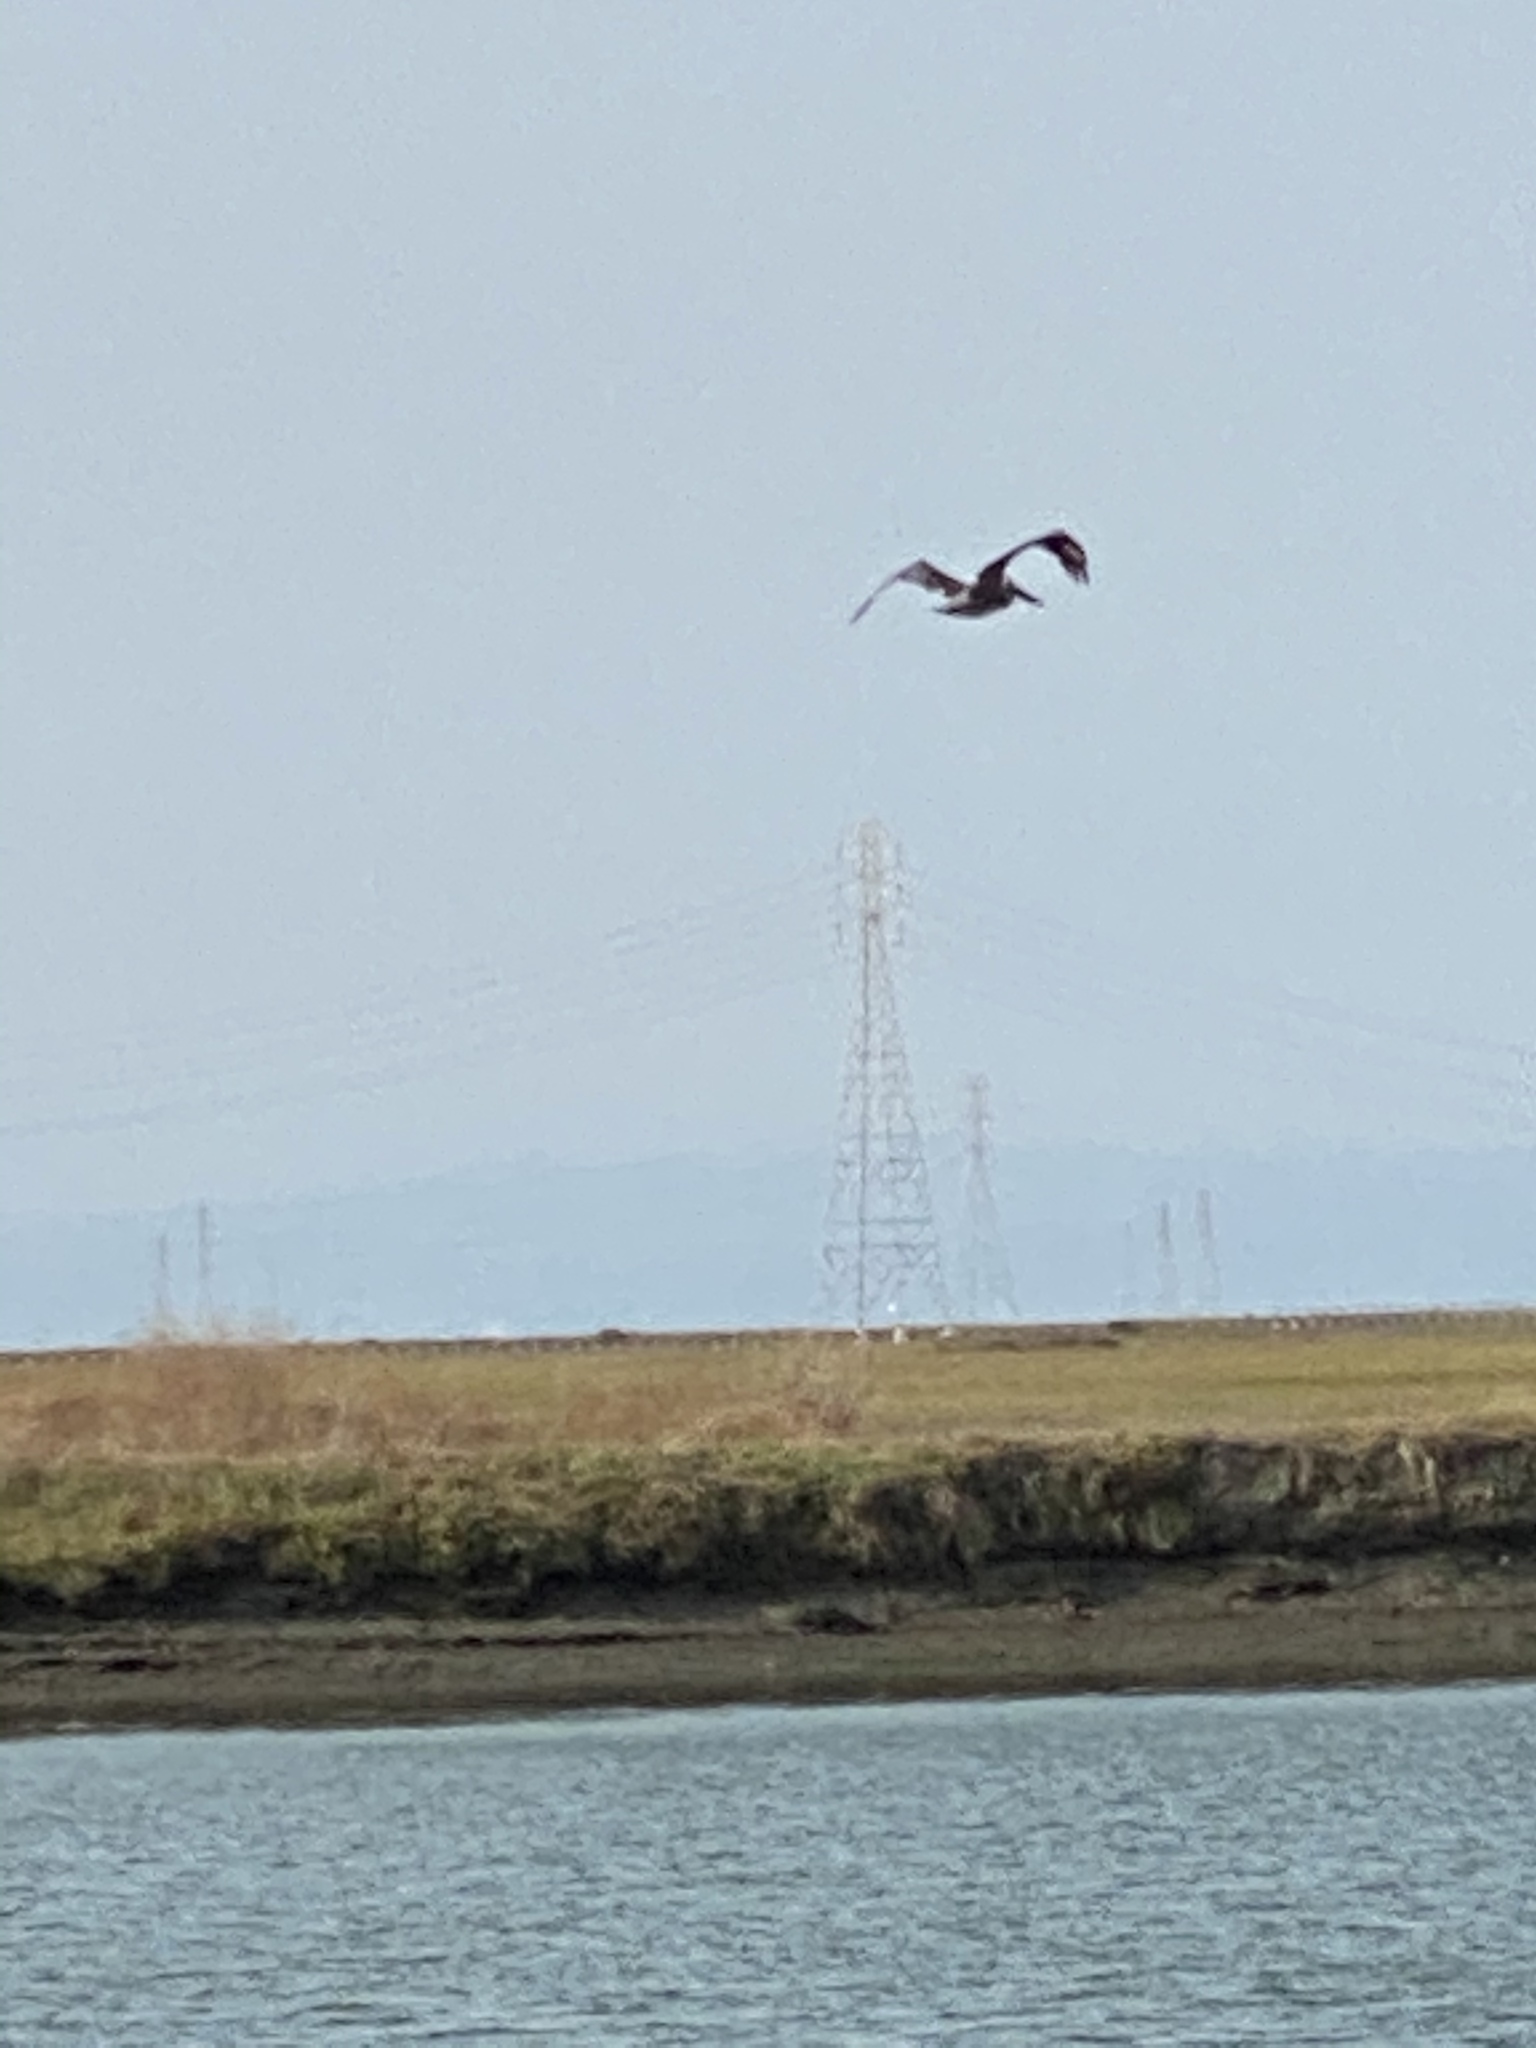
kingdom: Animalia
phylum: Chordata
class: Aves
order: Pelecaniformes
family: Pelecanidae
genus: Pelecanus
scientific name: Pelecanus occidentalis
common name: Brown pelican
